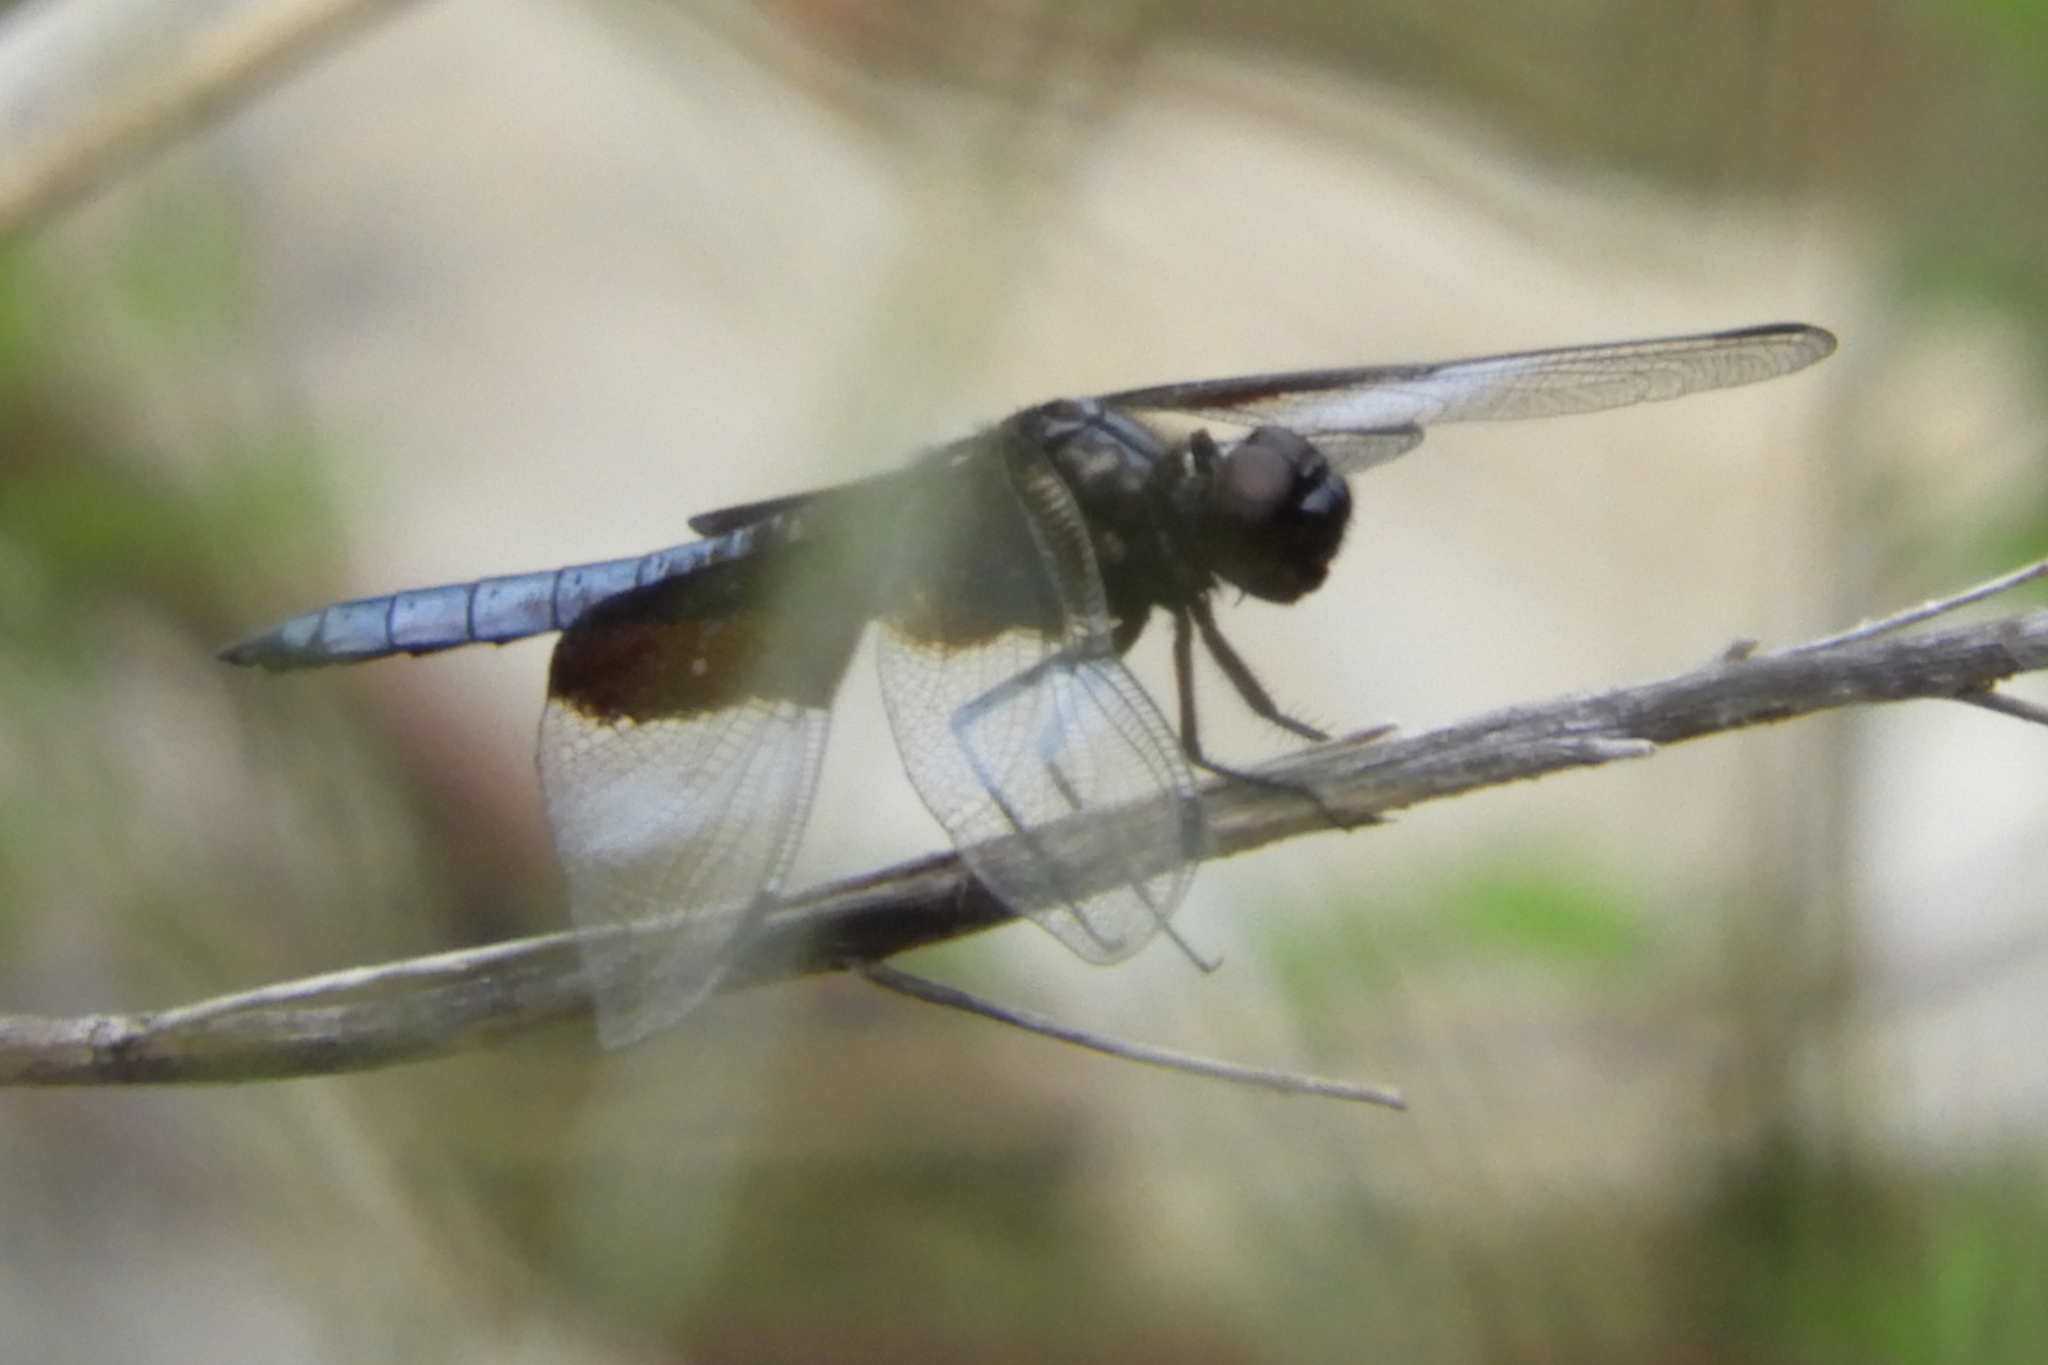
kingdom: Animalia
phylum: Arthropoda
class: Insecta
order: Odonata
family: Libellulidae
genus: Libellula
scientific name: Libellula luctuosa
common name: Widow skimmer
